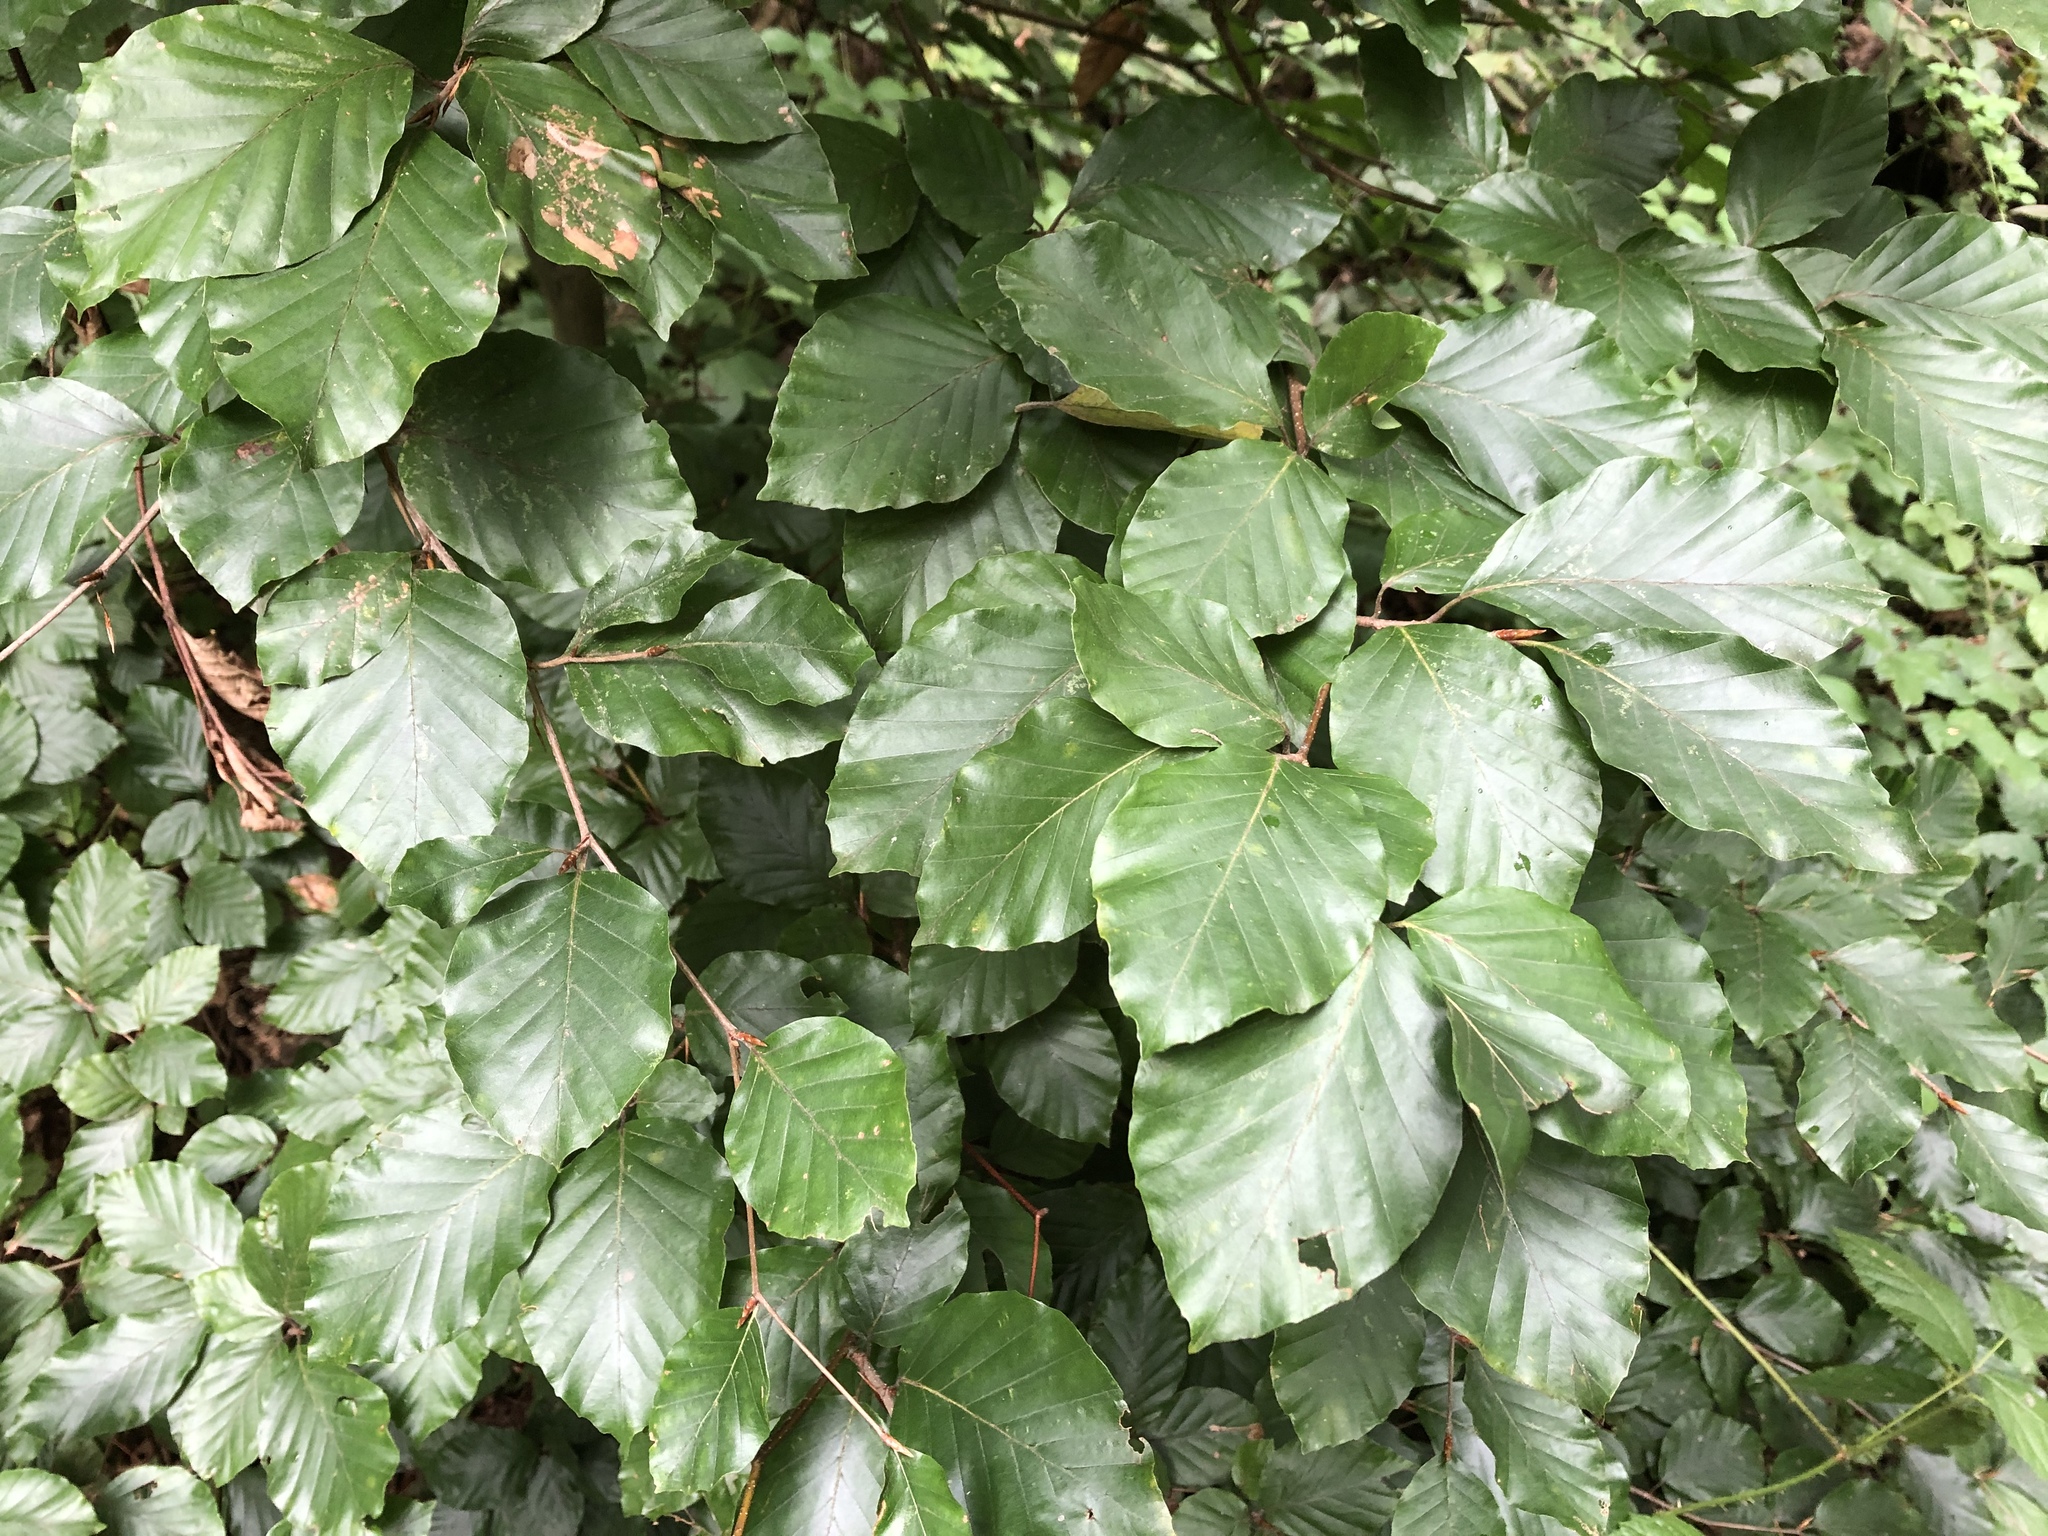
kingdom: Plantae
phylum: Tracheophyta
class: Magnoliopsida
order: Fagales
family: Fagaceae
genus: Fagus
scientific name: Fagus sylvatica
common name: Beech
